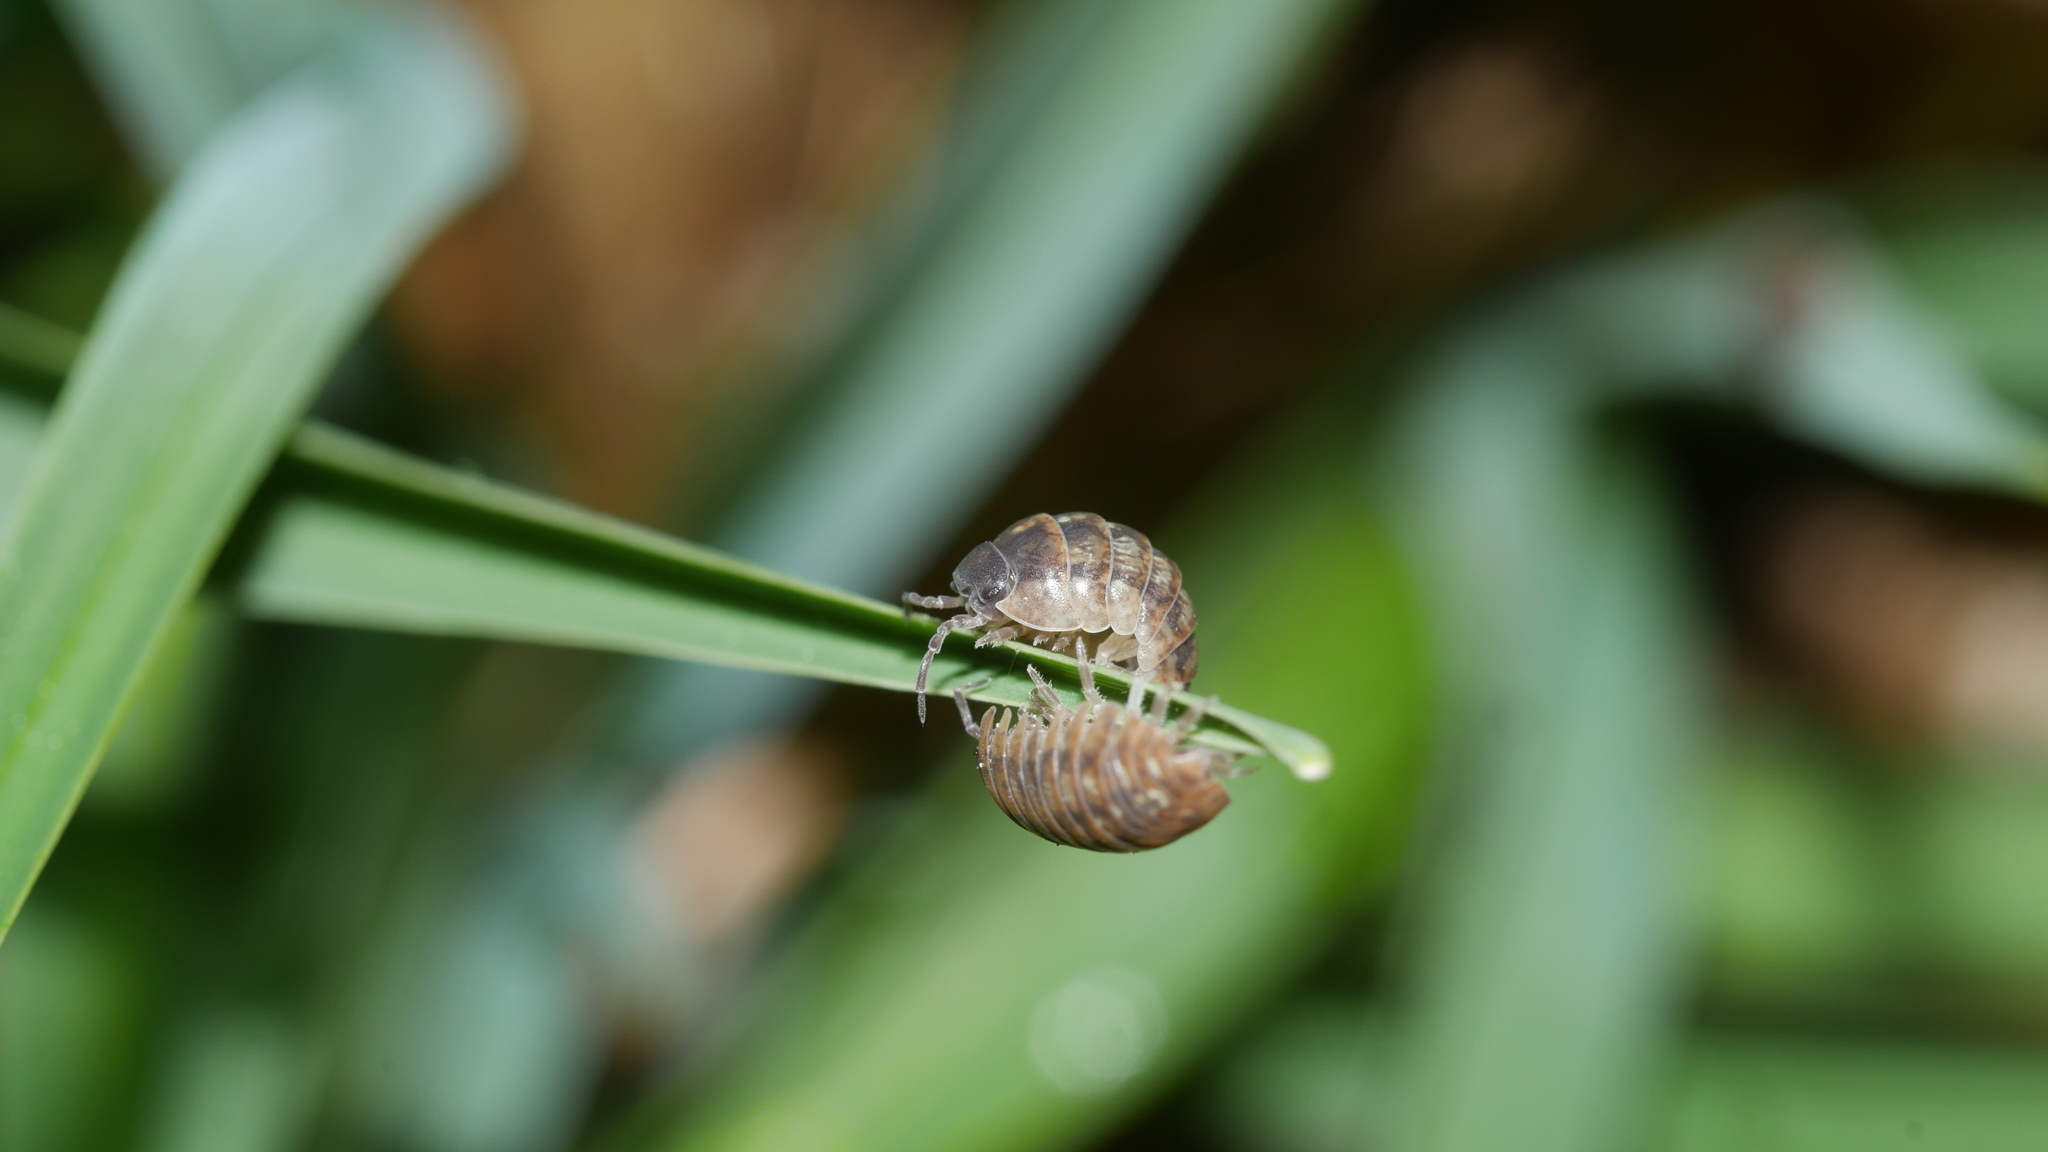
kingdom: Animalia
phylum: Arthropoda
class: Malacostraca
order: Isopoda
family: Armadillidiidae
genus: Armadillidium
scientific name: Armadillidium vulgare
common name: Common pill woodlouse
